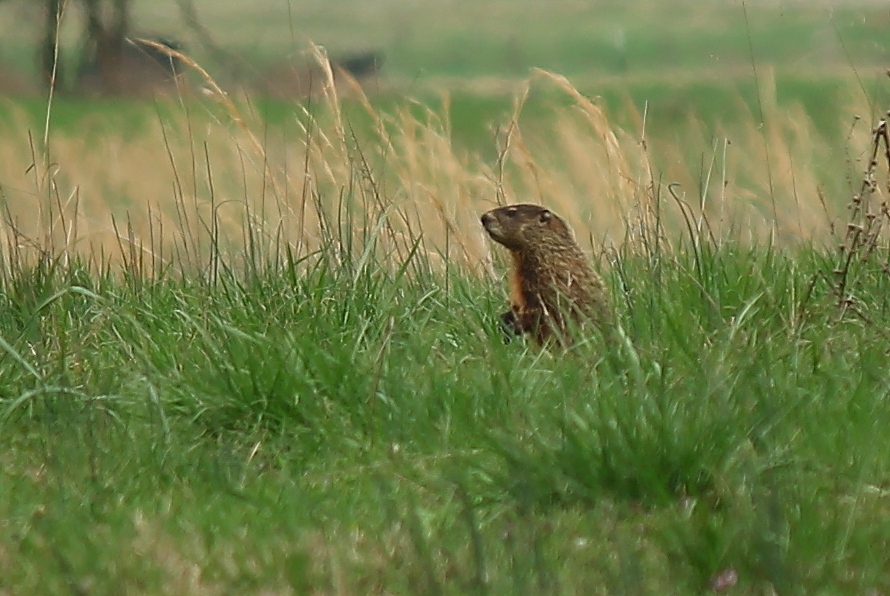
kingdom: Animalia
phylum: Chordata
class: Mammalia
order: Rodentia
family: Sciuridae
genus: Marmota
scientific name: Marmota monax
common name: Groundhog
